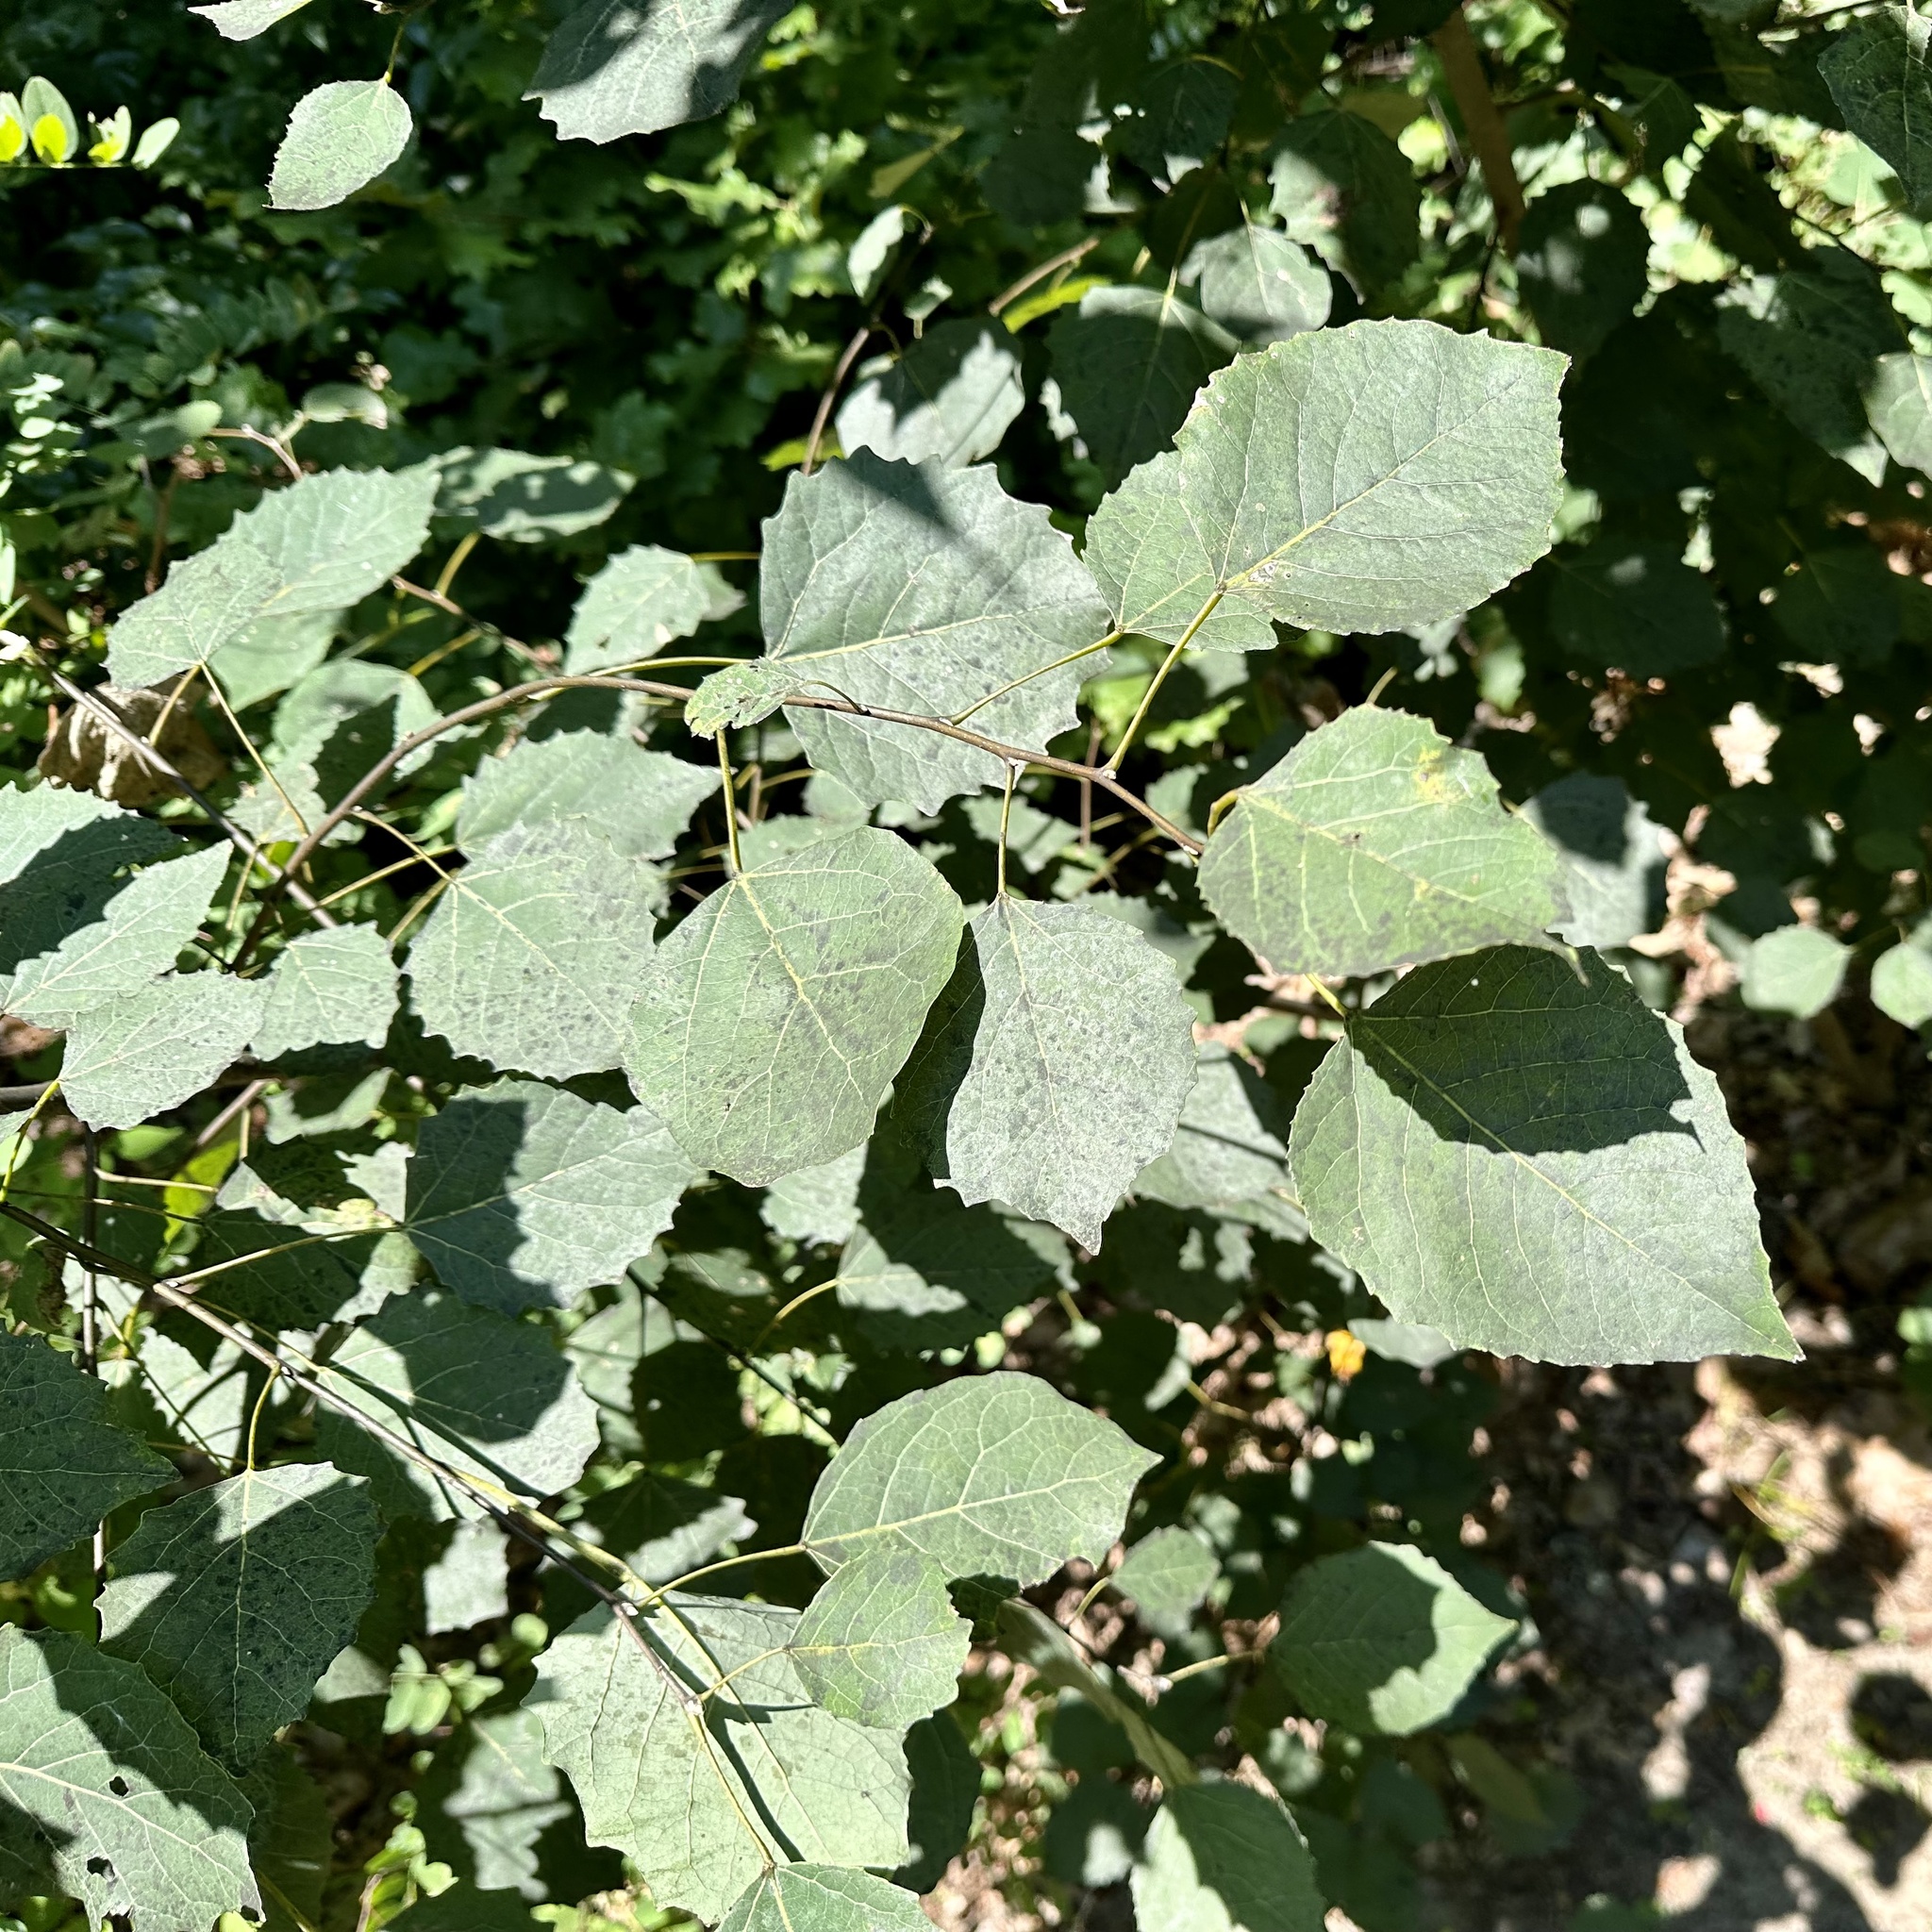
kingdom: Plantae
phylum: Tracheophyta
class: Magnoliopsida
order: Malpighiales
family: Salicaceae
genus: Populus
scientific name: Populus grandidentata
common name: Bigtooth aspen
